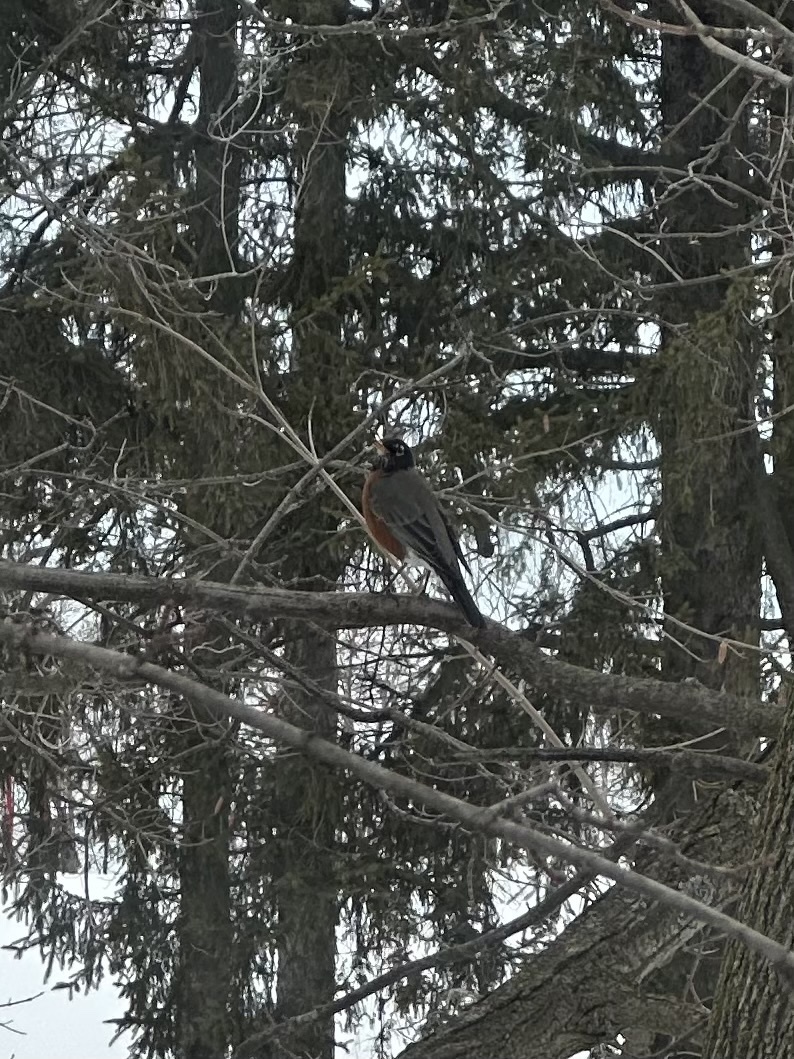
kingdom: Animalia
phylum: Chordata
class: Aves
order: Passeriformes
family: Turdidae
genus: Turdus
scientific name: Turdus migratorius
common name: American robin
